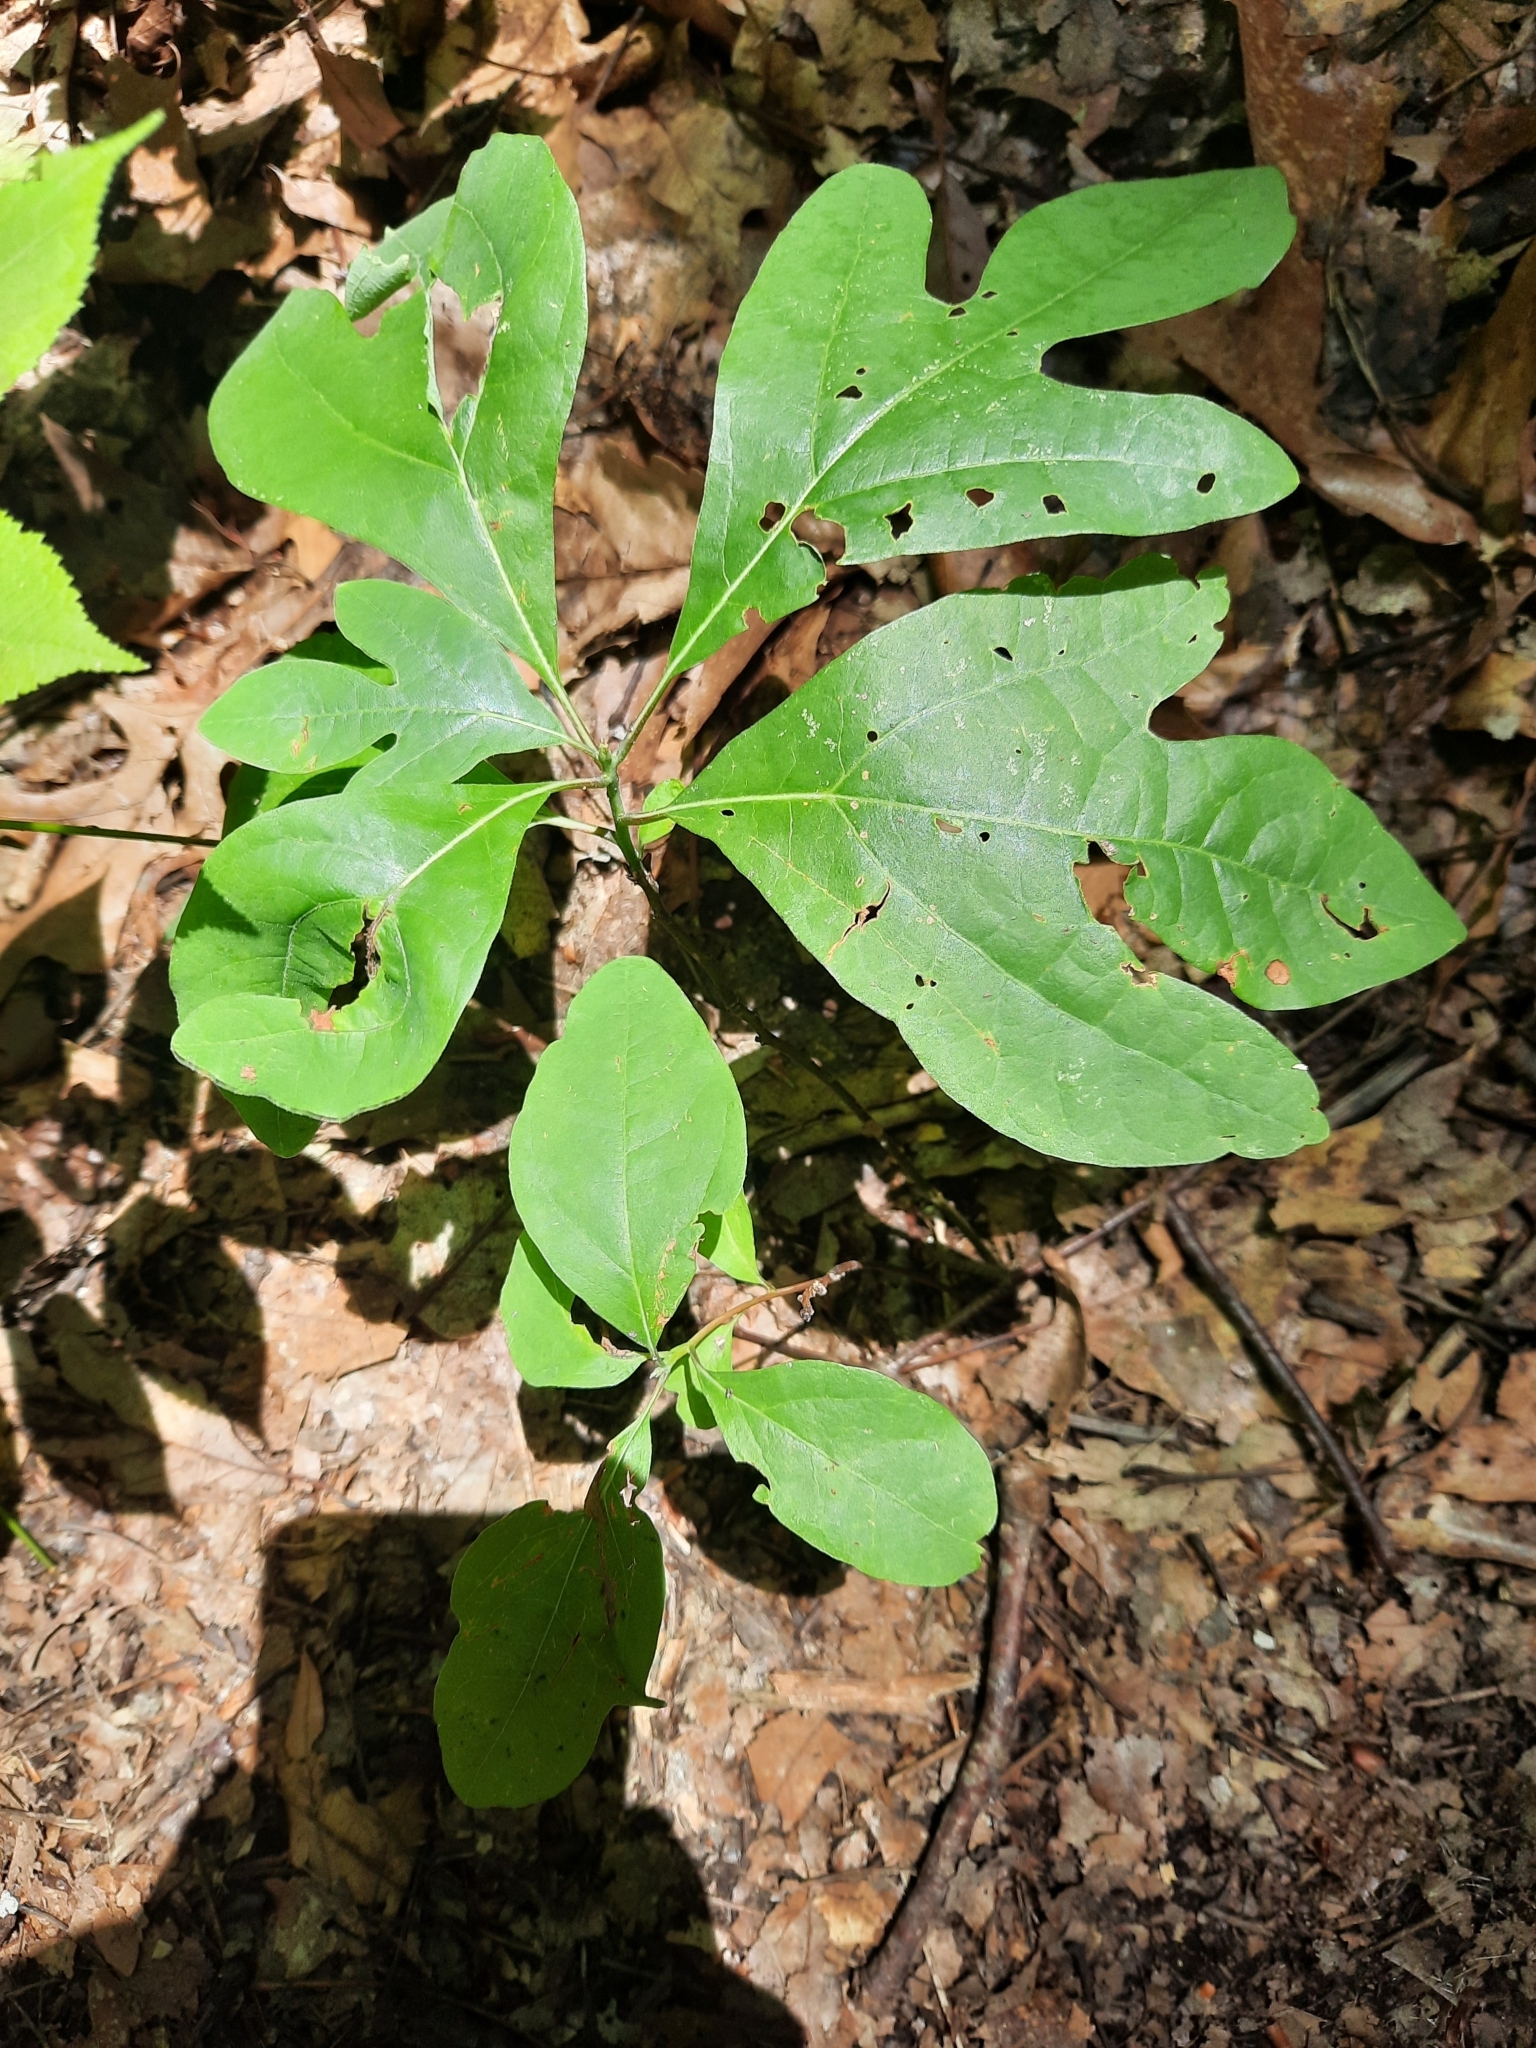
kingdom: Plantae
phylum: Tracheophyta
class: Magnoliopsida
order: Laurales
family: Lauraceae
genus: Sassafras
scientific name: Sassafras albidum
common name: Sassafras
